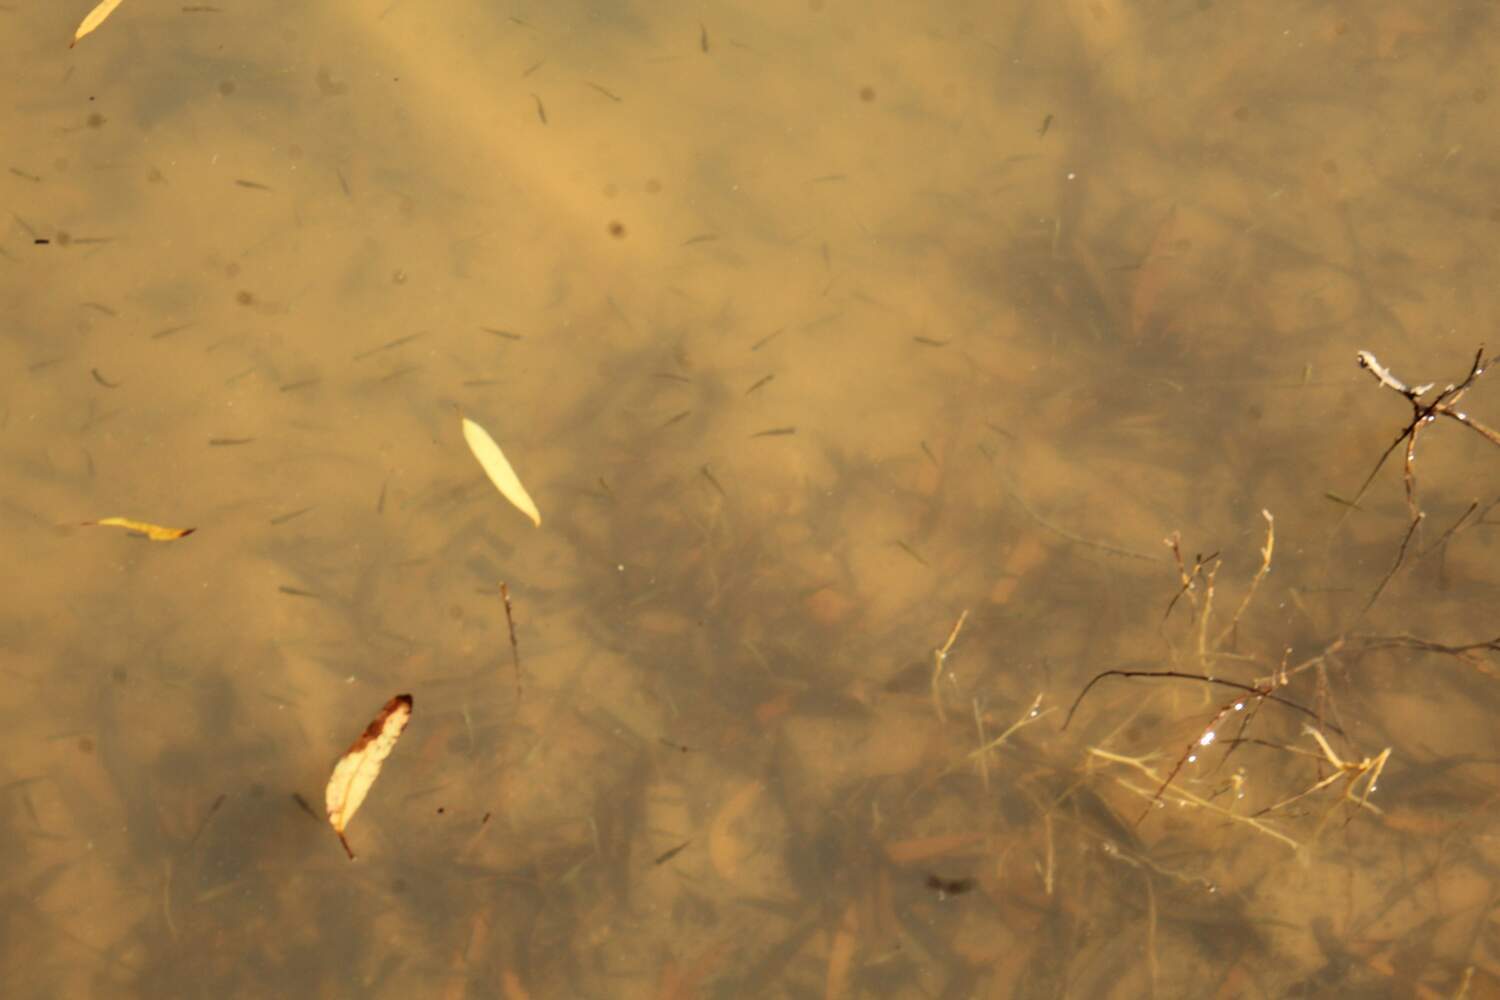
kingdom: Animalia
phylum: Chordata
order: Cyprinodontiformes
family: Poeciliidae
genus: Gambusia
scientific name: Gambusia holbrooki
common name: Eastern mosquitofish
